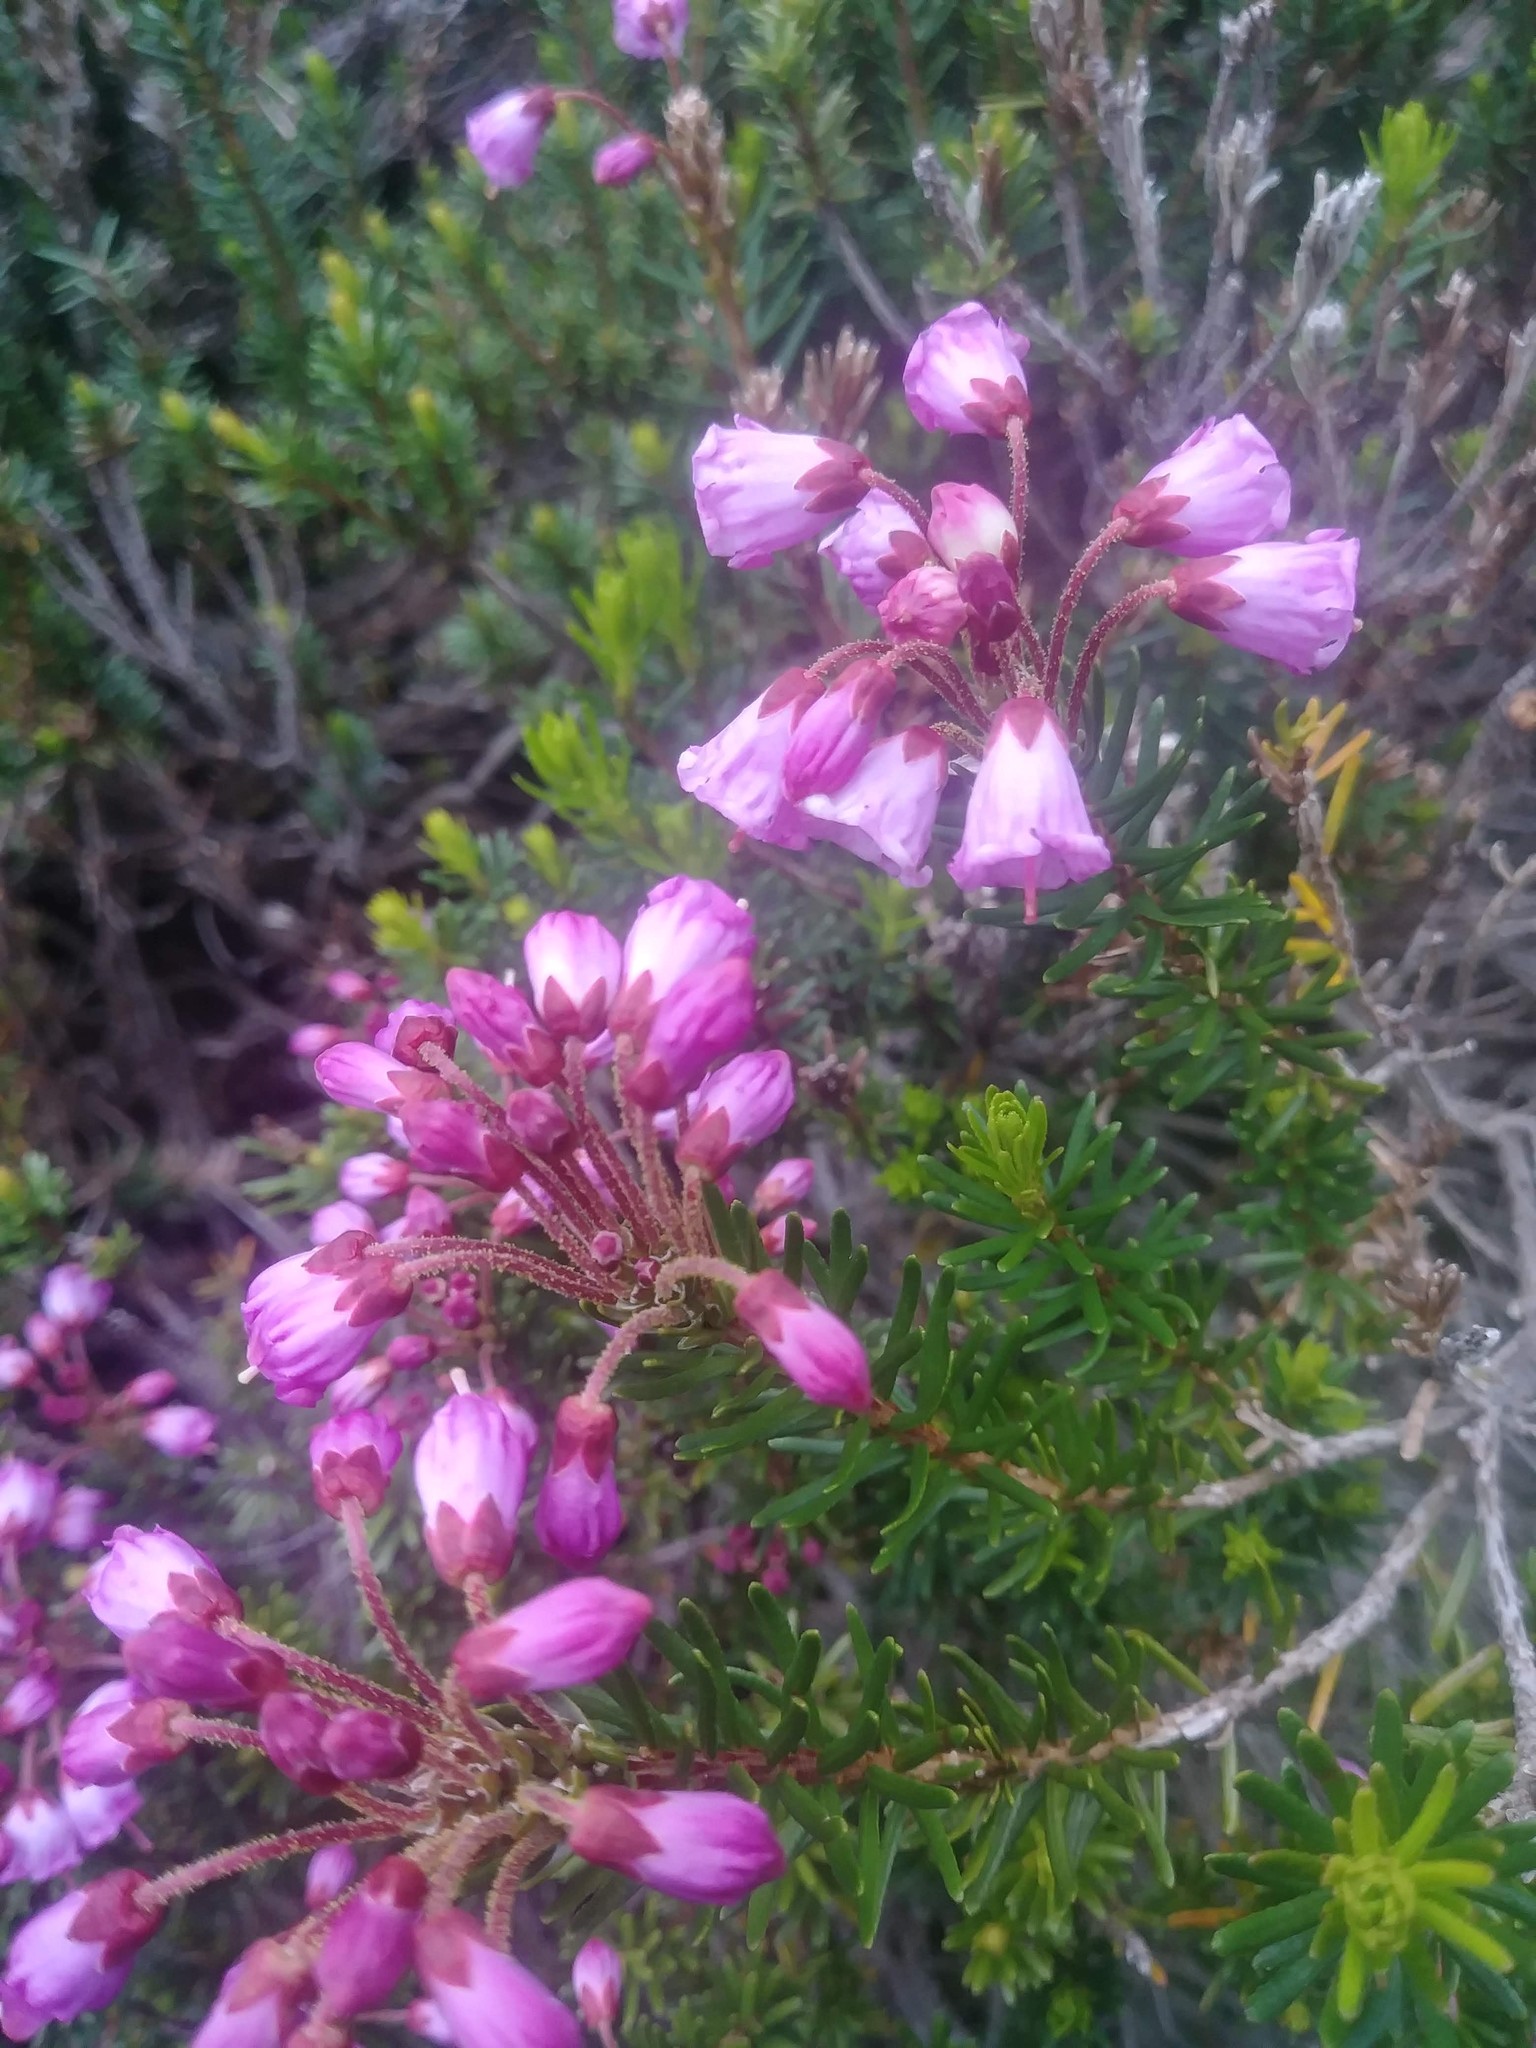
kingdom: Plantae
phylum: Tracheophyta
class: Magnoliopsida
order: Ericales
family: Ericaceae
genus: Phyllodoce
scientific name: Phyllodoce empetriformis
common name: Pink mountain heather
